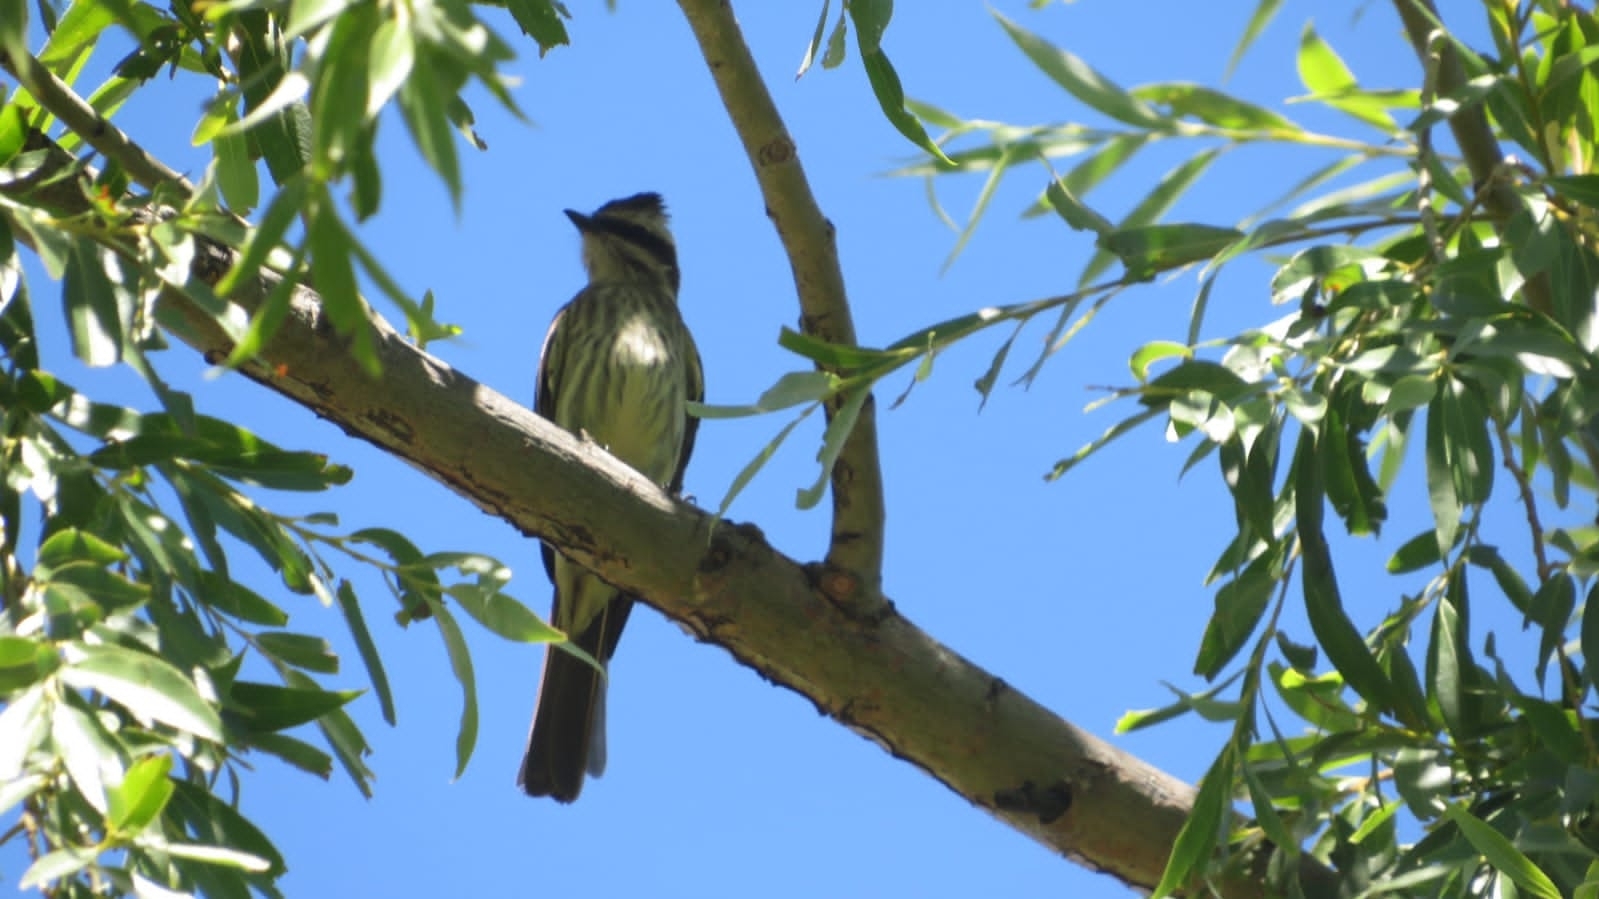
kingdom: Animalia
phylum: Chordata
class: Aves
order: Passeriformes
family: Tyrannidae
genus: Empidonomus
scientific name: Empidonomus varius
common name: Variegated flycatcher
